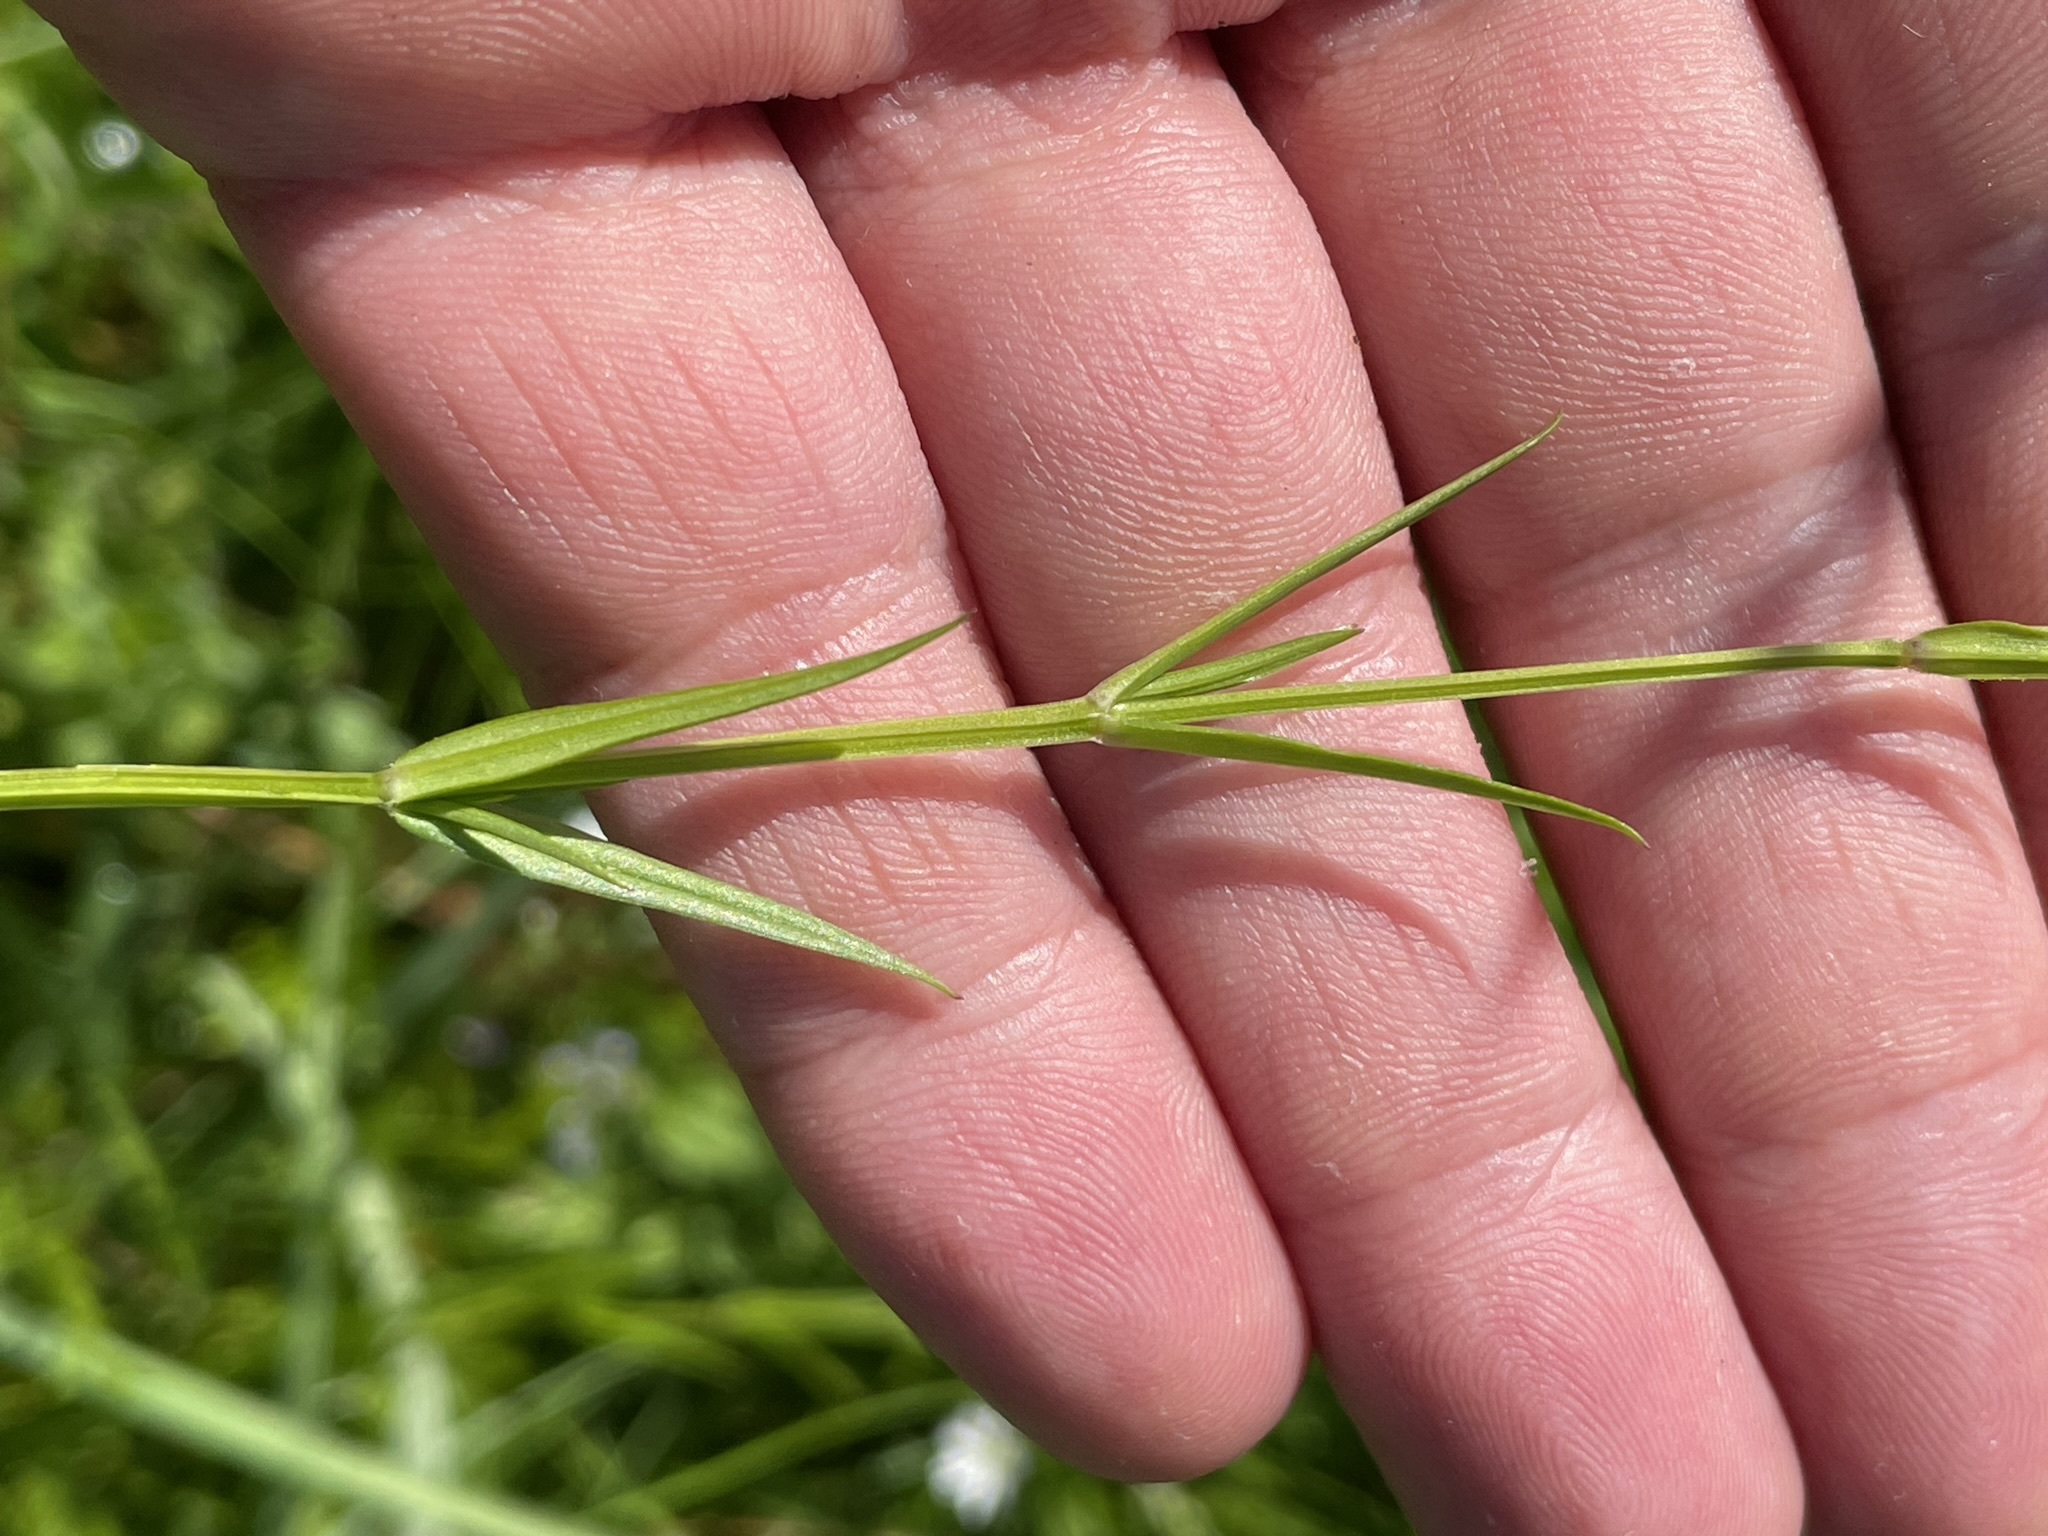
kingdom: Plantae
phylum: Tracheophyta
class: Magnoliopsida
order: Caryophyllales
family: Caryophyllaceae
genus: Stellaria
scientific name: Stellaria graminea
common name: Grass-like starwort
